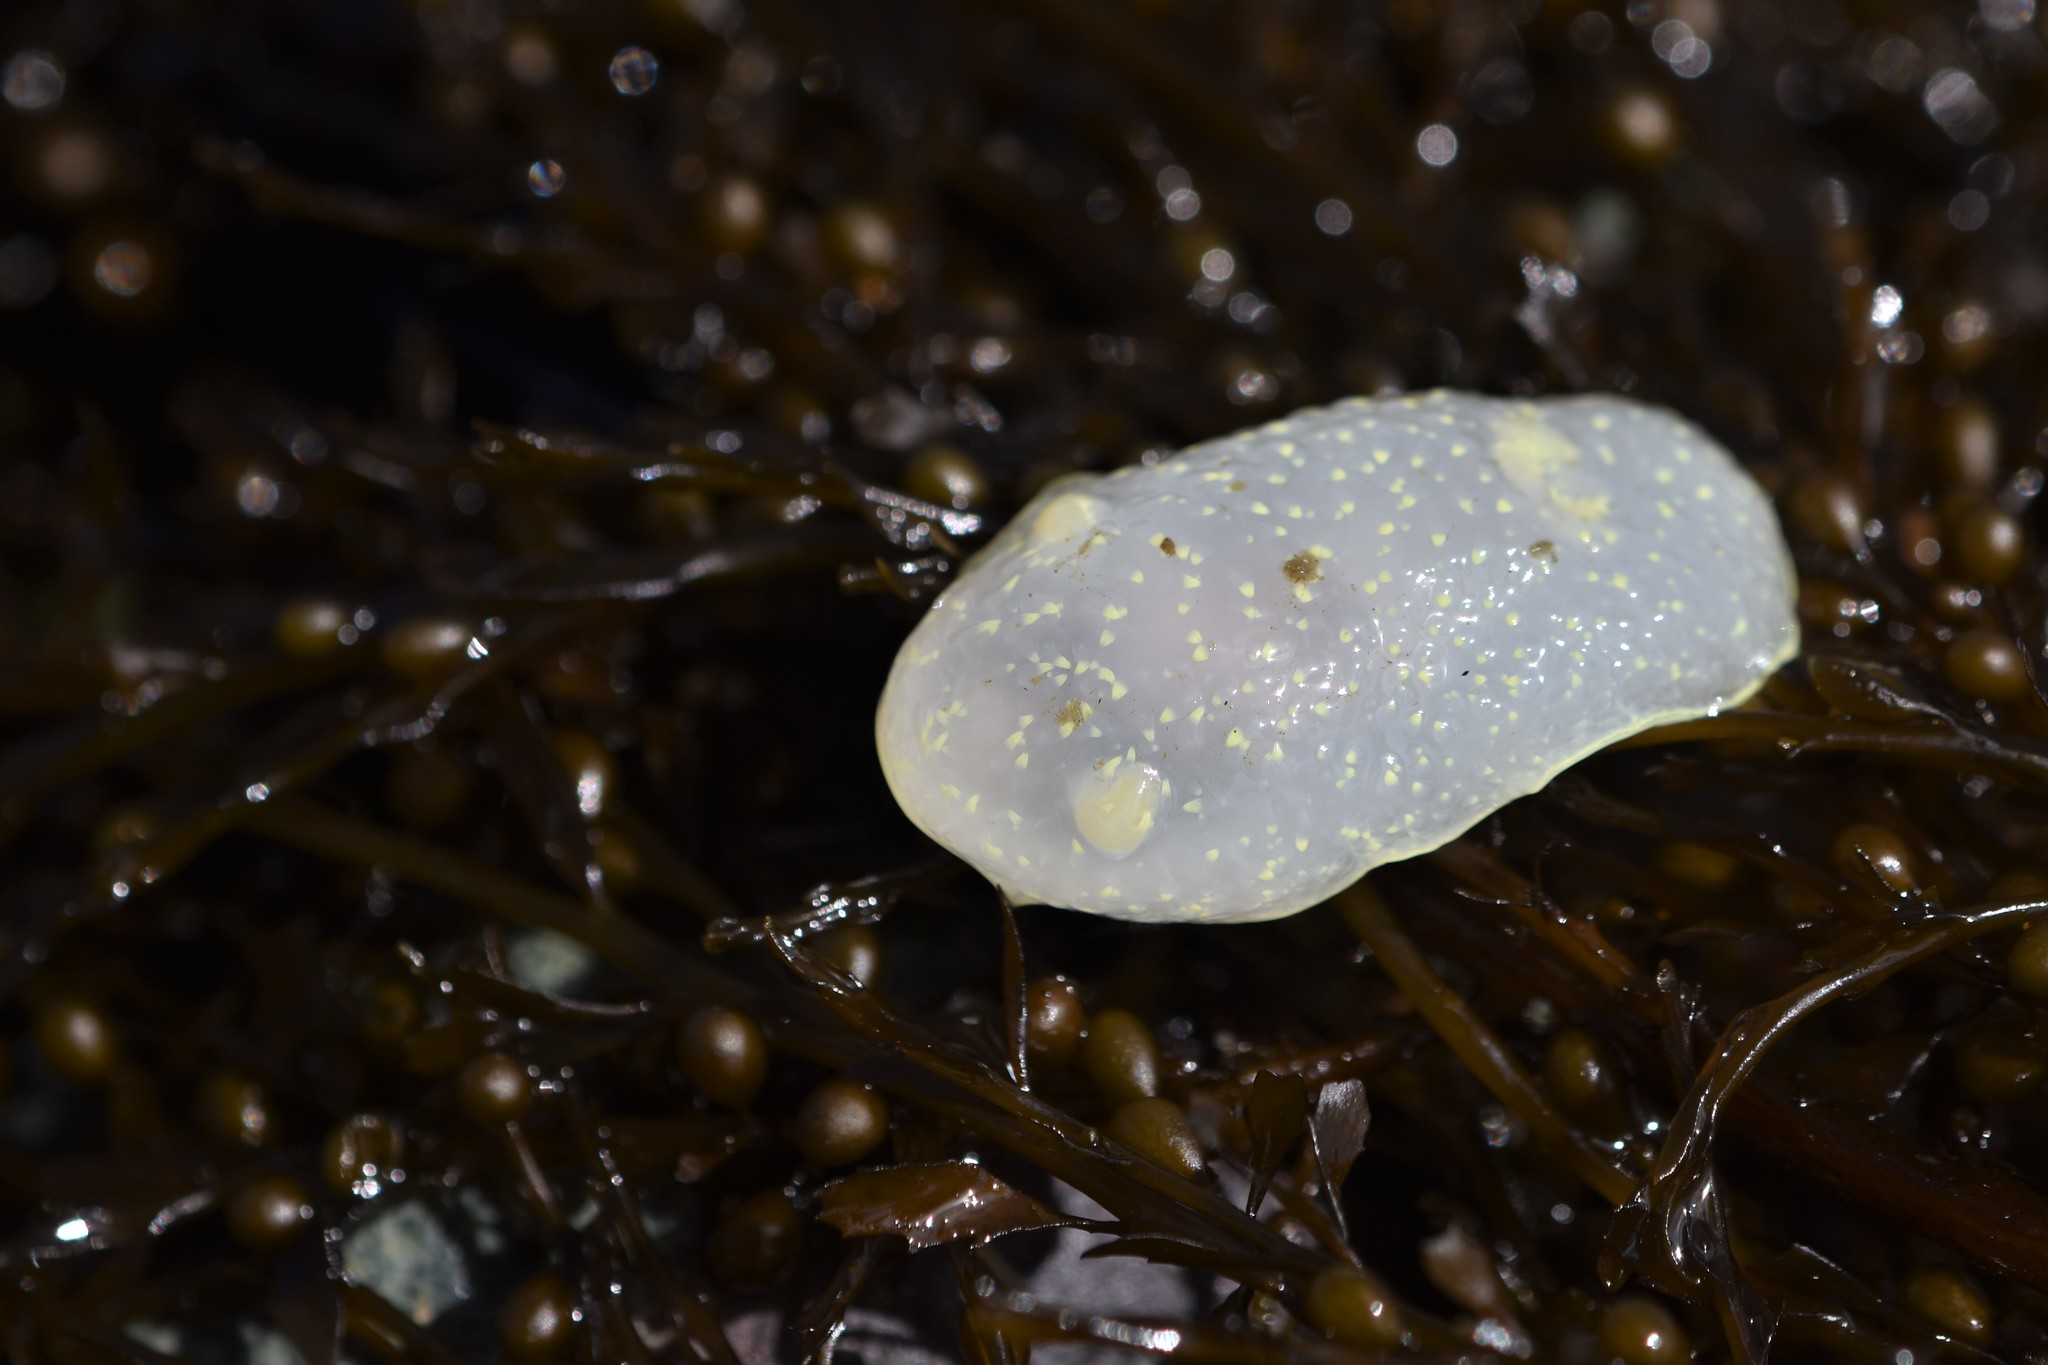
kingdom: Animalia
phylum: Mollusca
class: Gastropoda
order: Nudibranchia
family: Onchidorididae
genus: Acanthodoris
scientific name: Acanthodoris hudsoni
